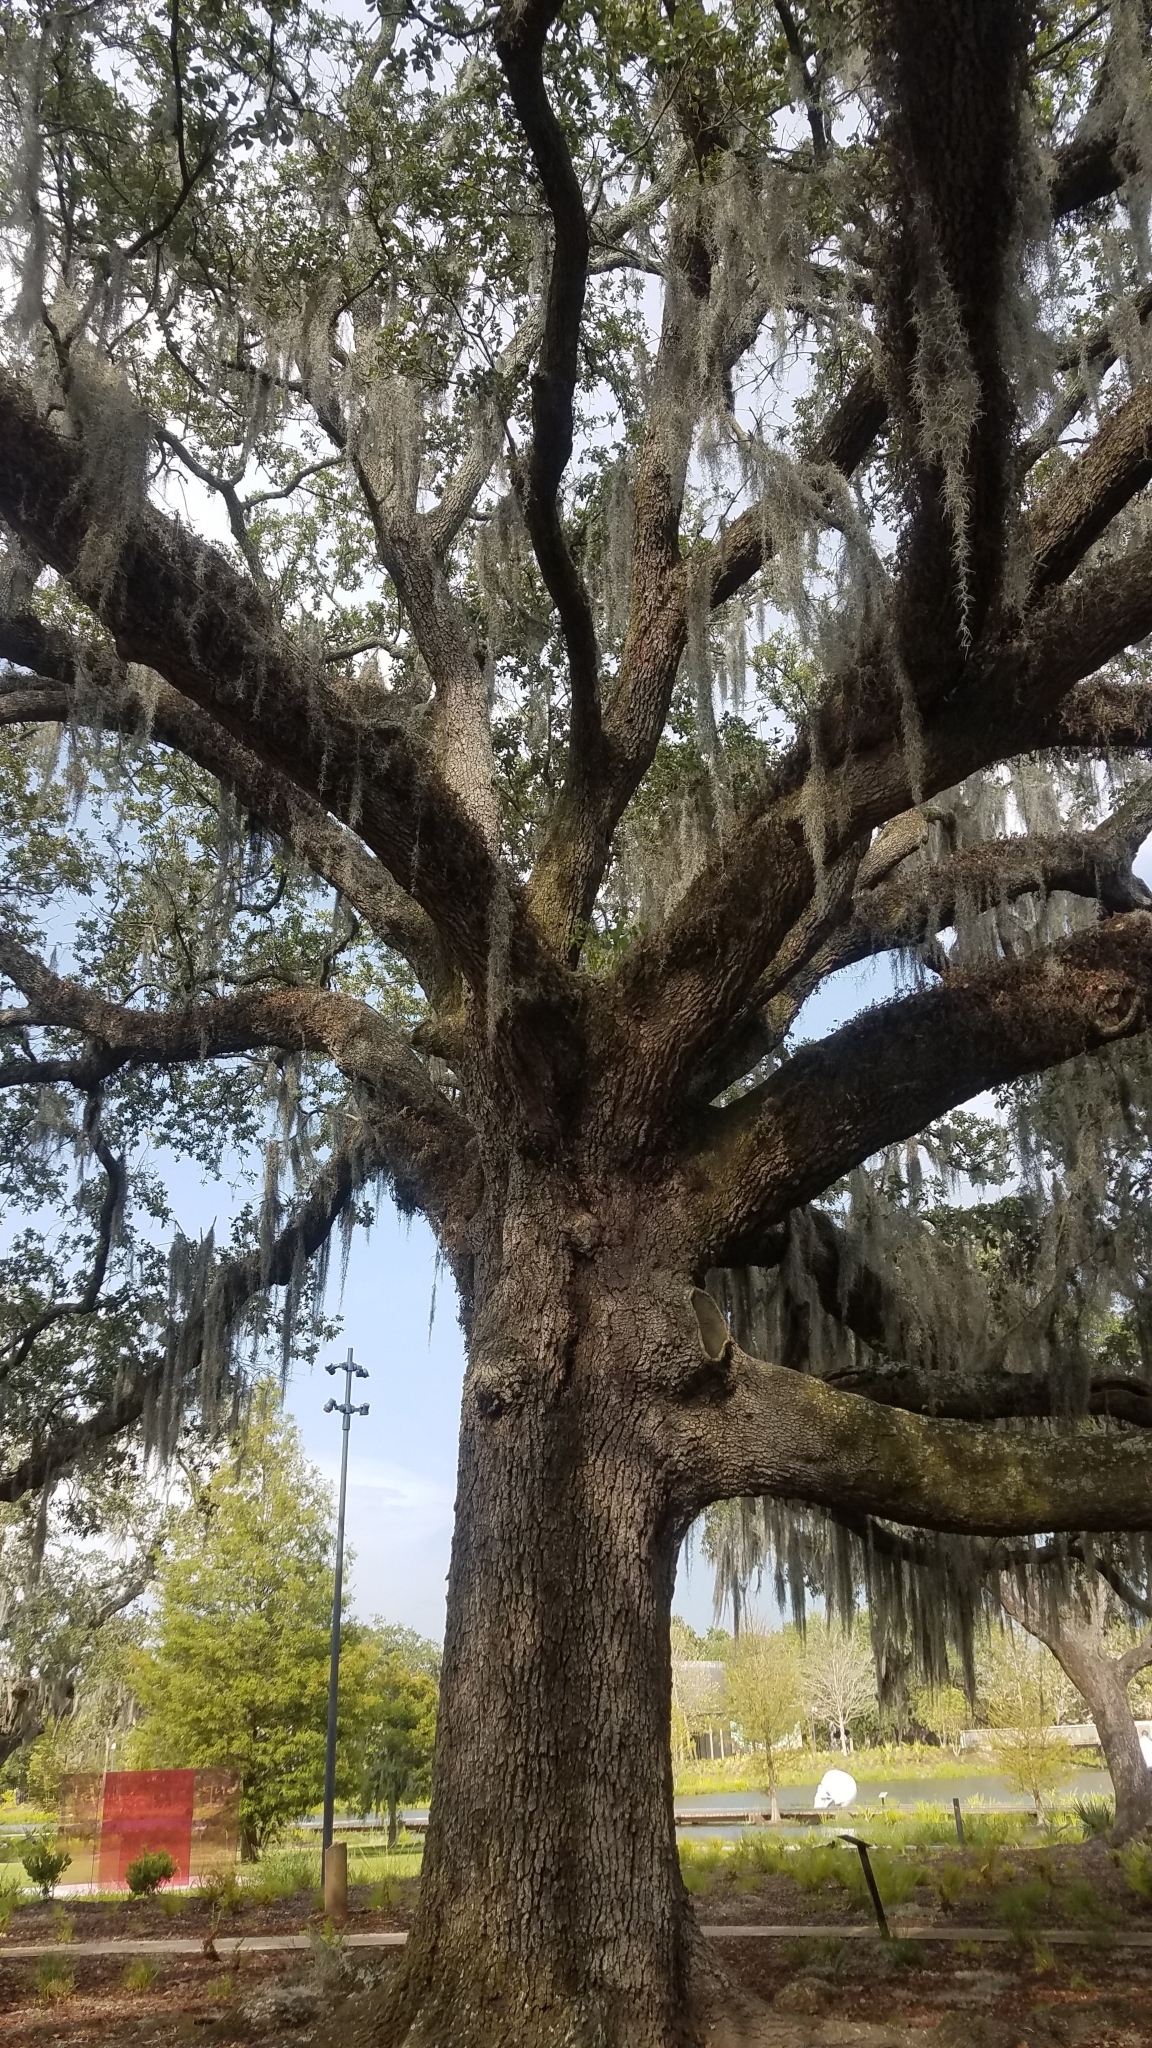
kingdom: Plantae
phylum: Tracheophyta
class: Magnoliopsida
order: Fagales
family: Fagaceae
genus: Quercus
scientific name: Quercus virginiana
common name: Southern live oak
